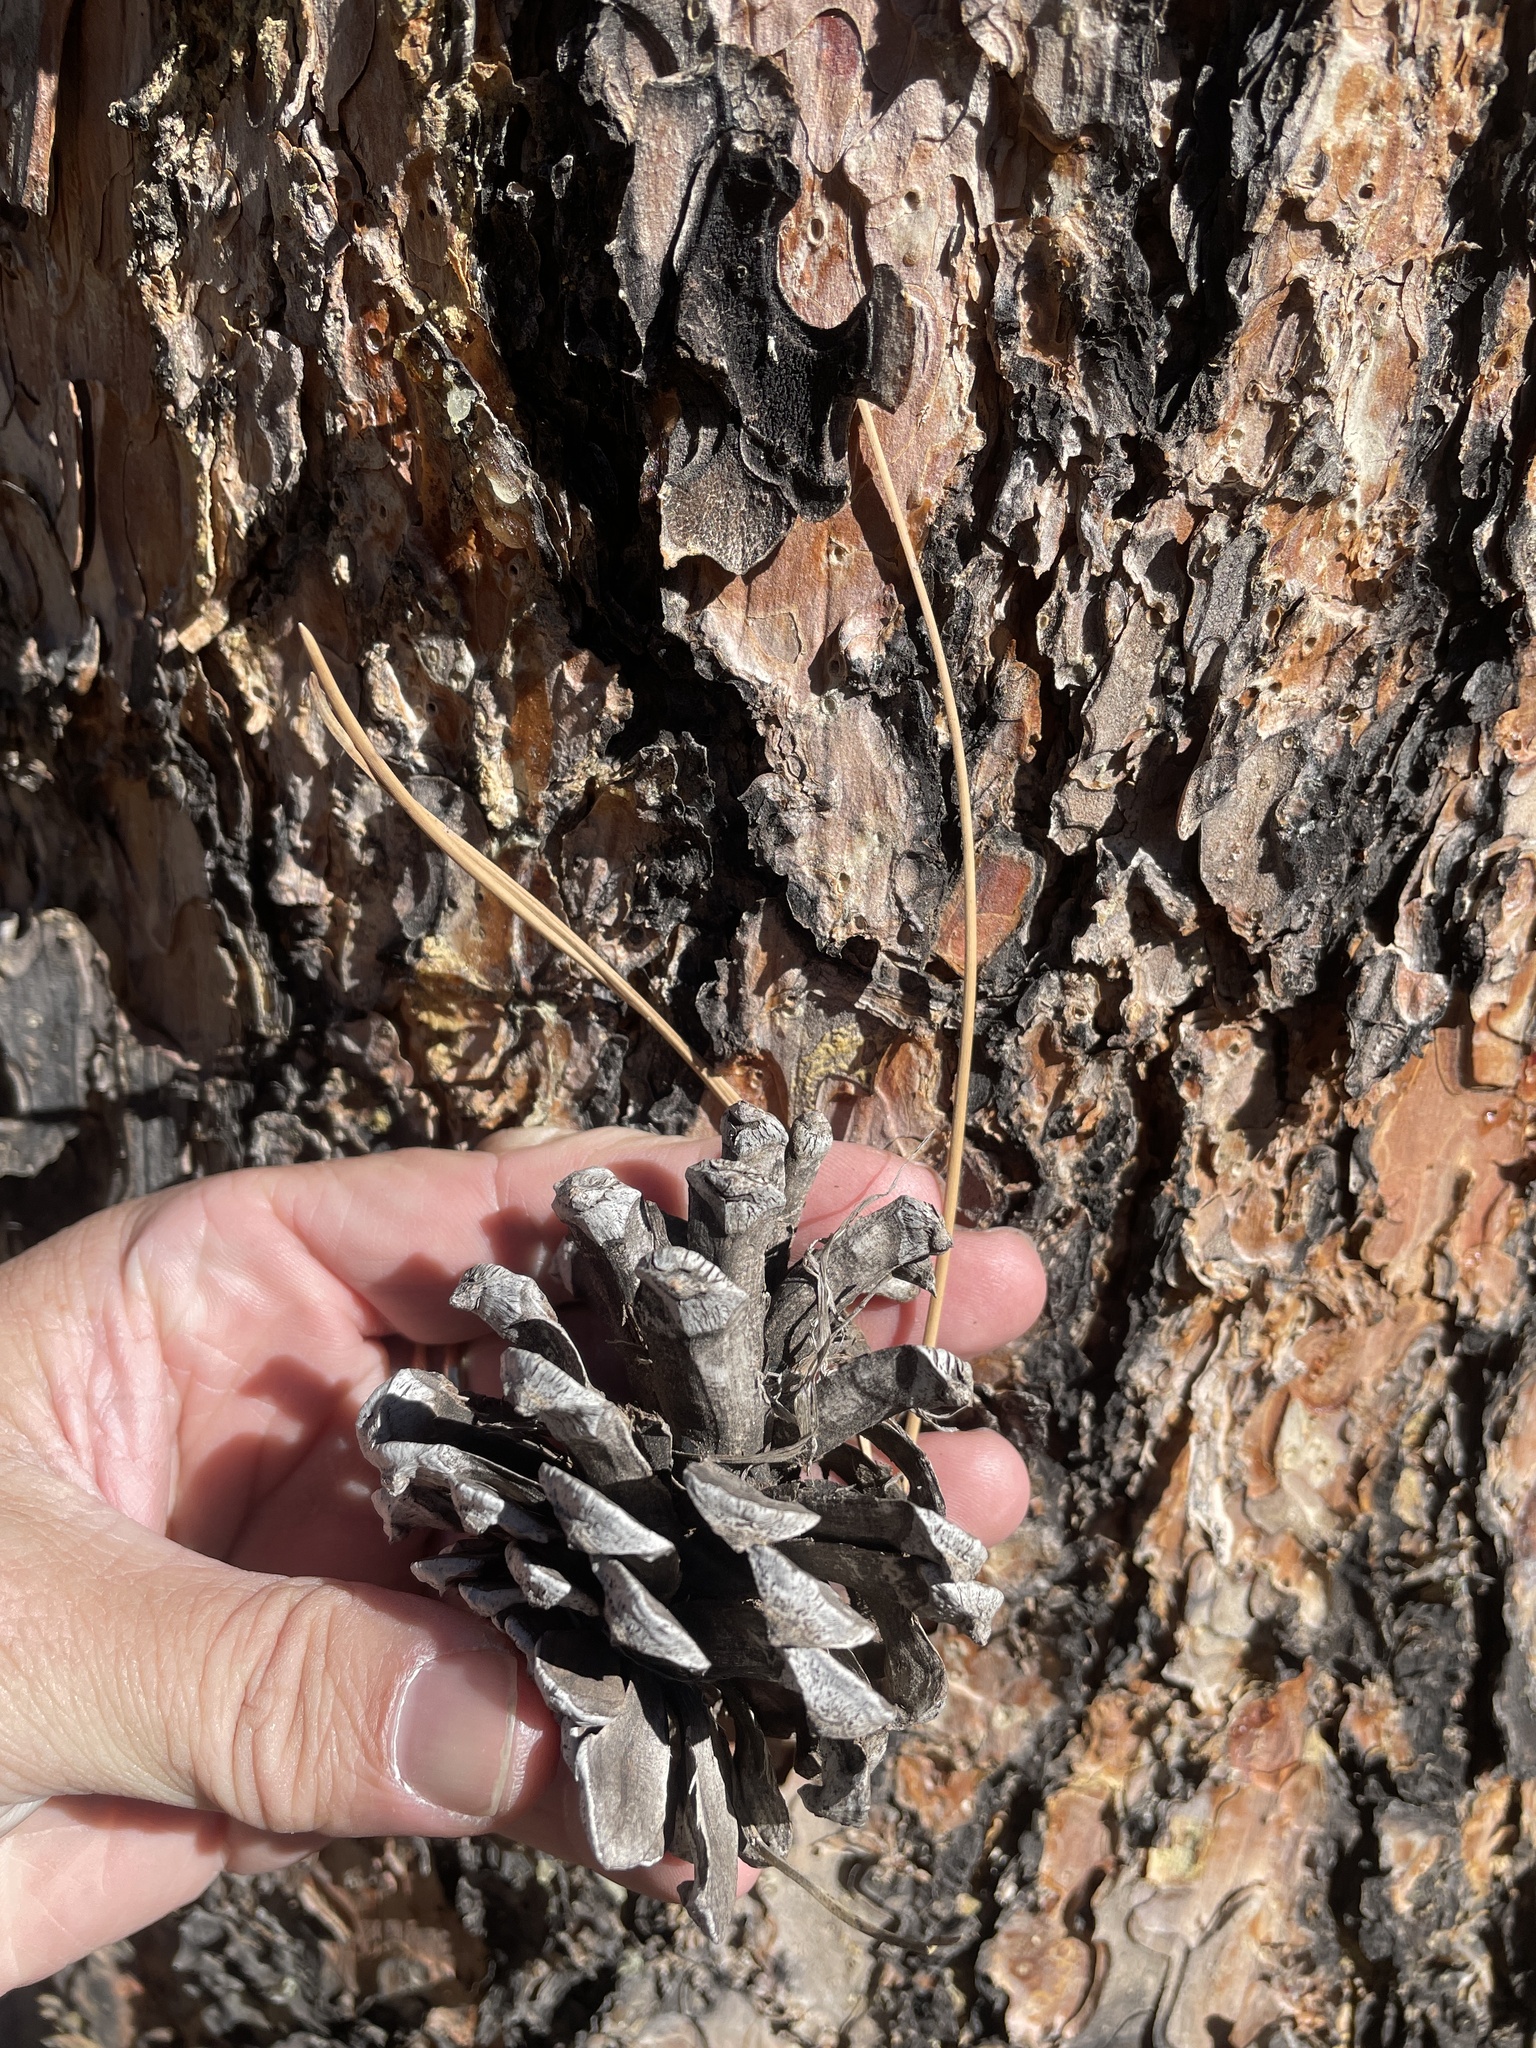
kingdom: Plantae
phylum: Tracheophyta
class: Pinopsida
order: Pinales
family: Pinaceae
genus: Pinus
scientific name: Pinus ponderosa
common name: Western yellow-pine
